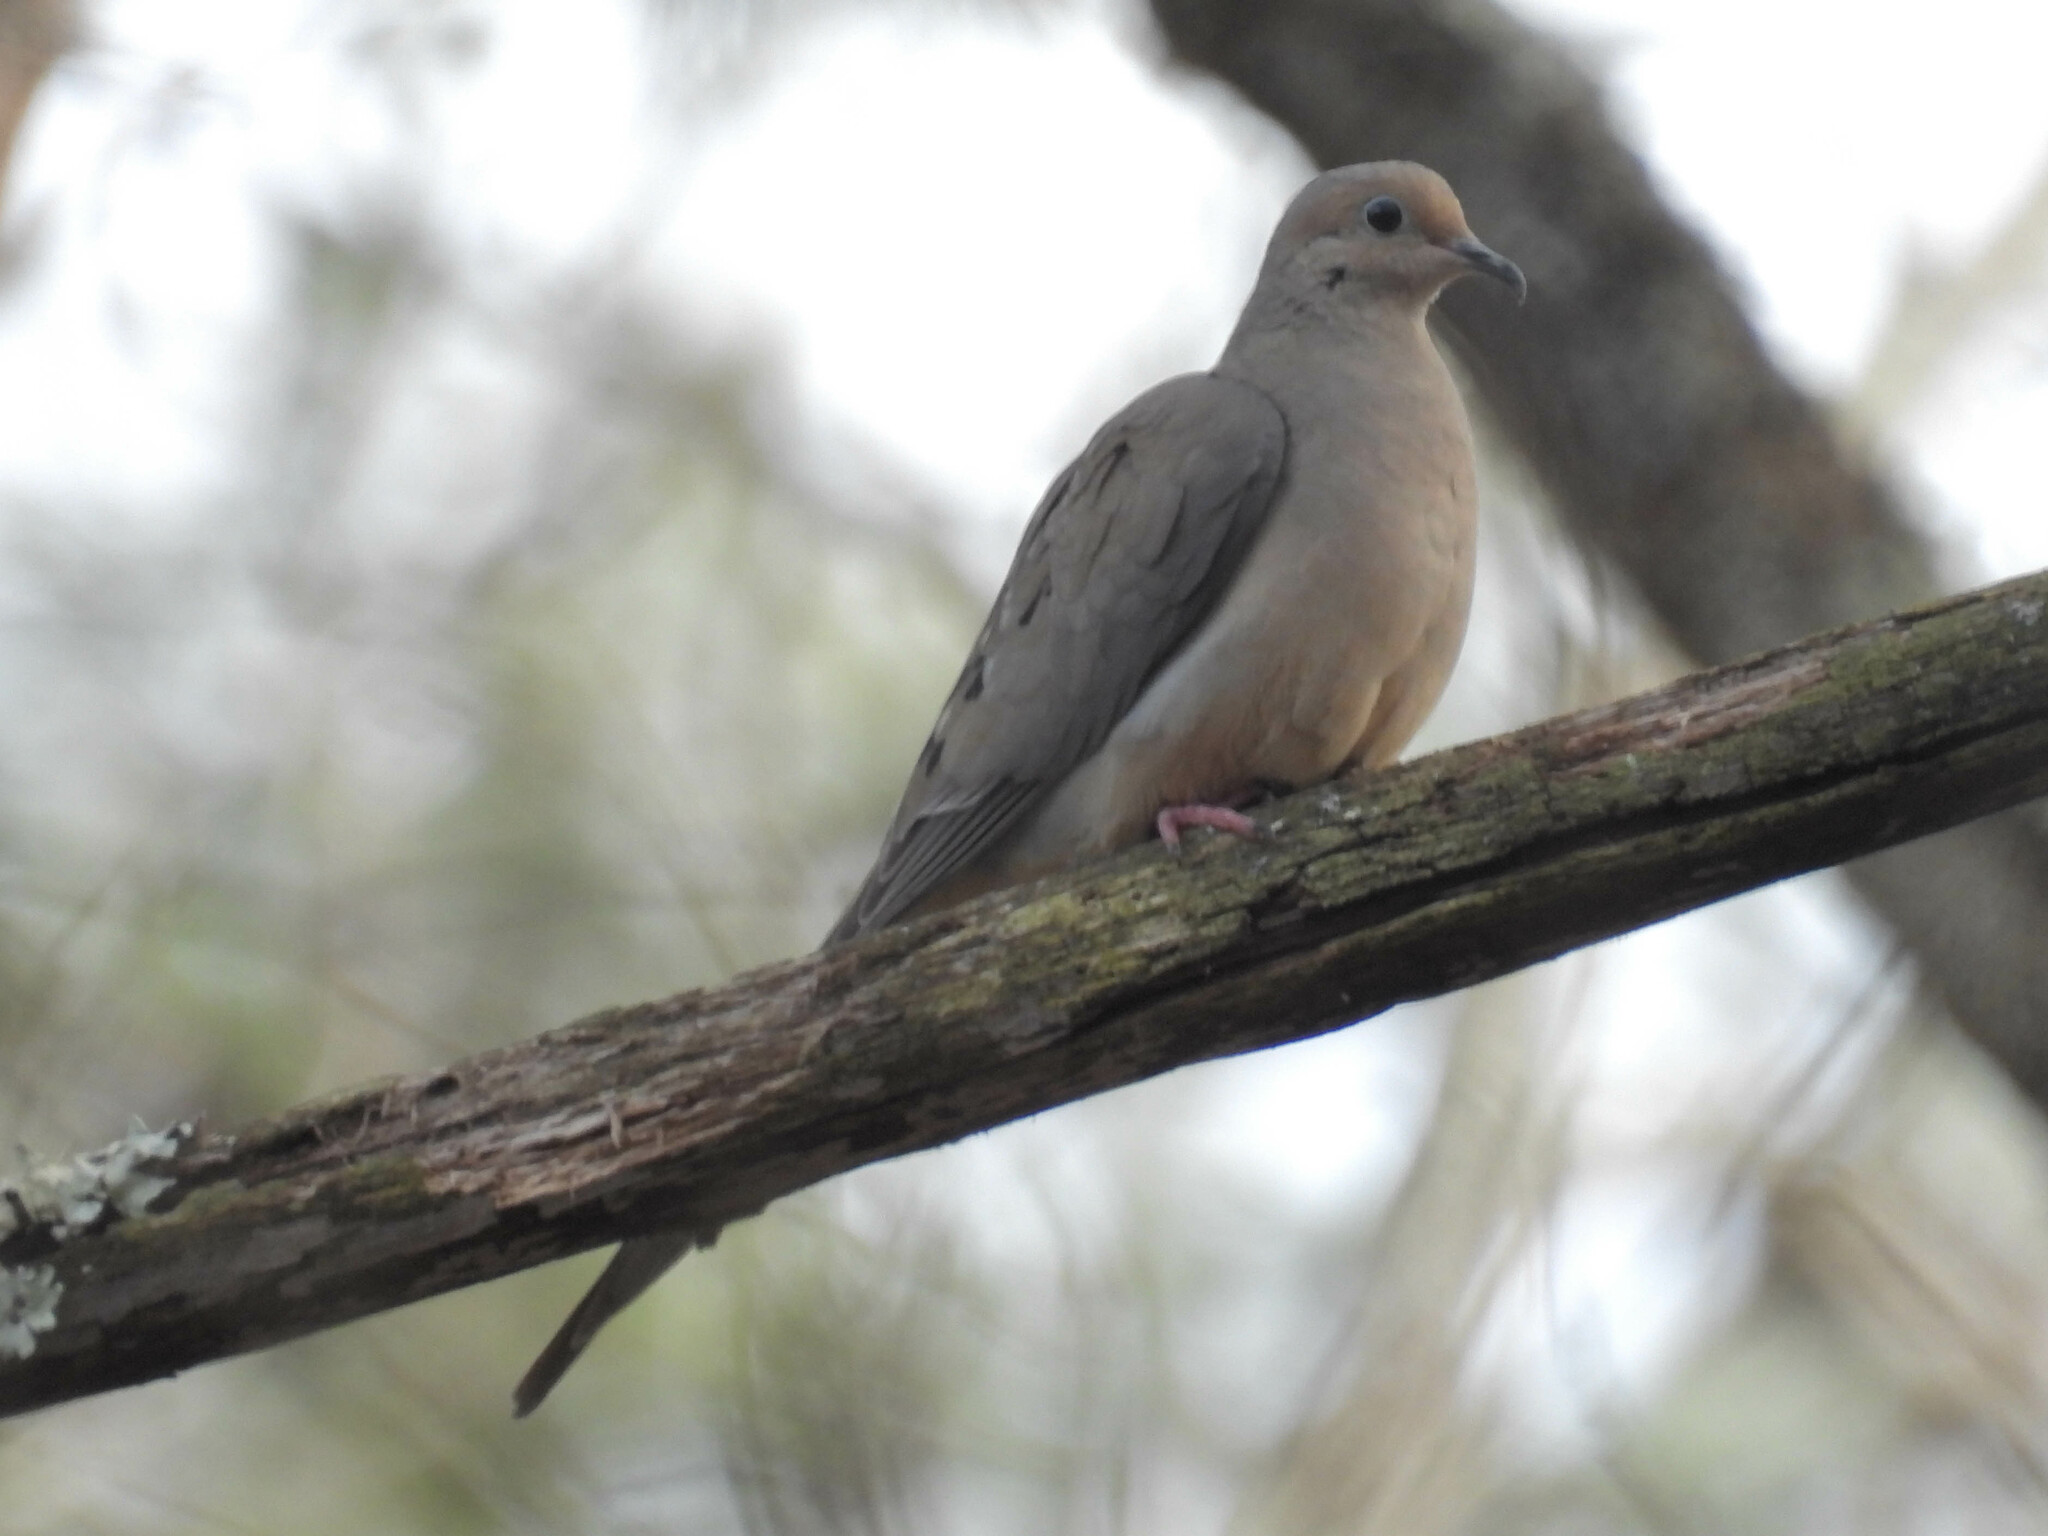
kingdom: Animalia
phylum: Chordata
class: Aves
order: Columbiformes
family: Columbidae
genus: Zenaida
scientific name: Zenaida macroura
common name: Mourning dove
